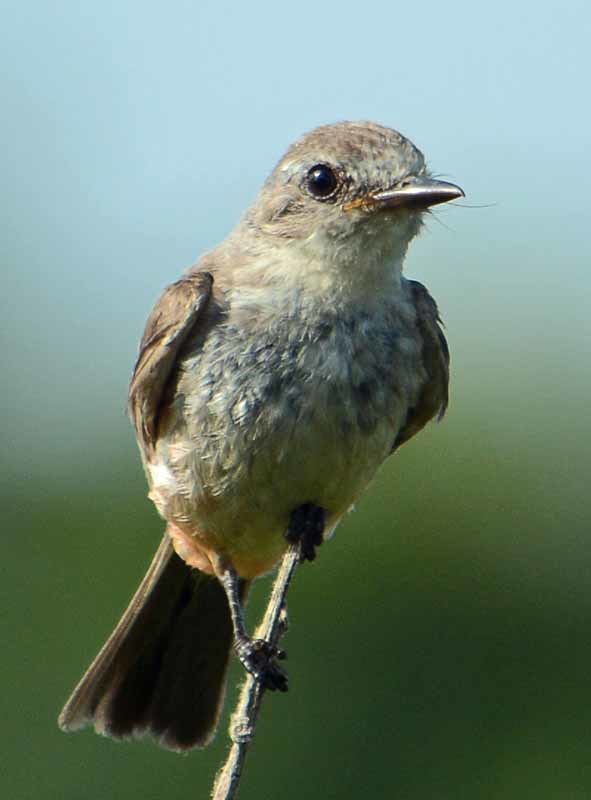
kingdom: Animalia
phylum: Chordata
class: Aves
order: Passeriformes
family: Tyrannidae
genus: Pyrocephalus
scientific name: Pyrocephalus rubinus
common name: Vermilion flycatcher
